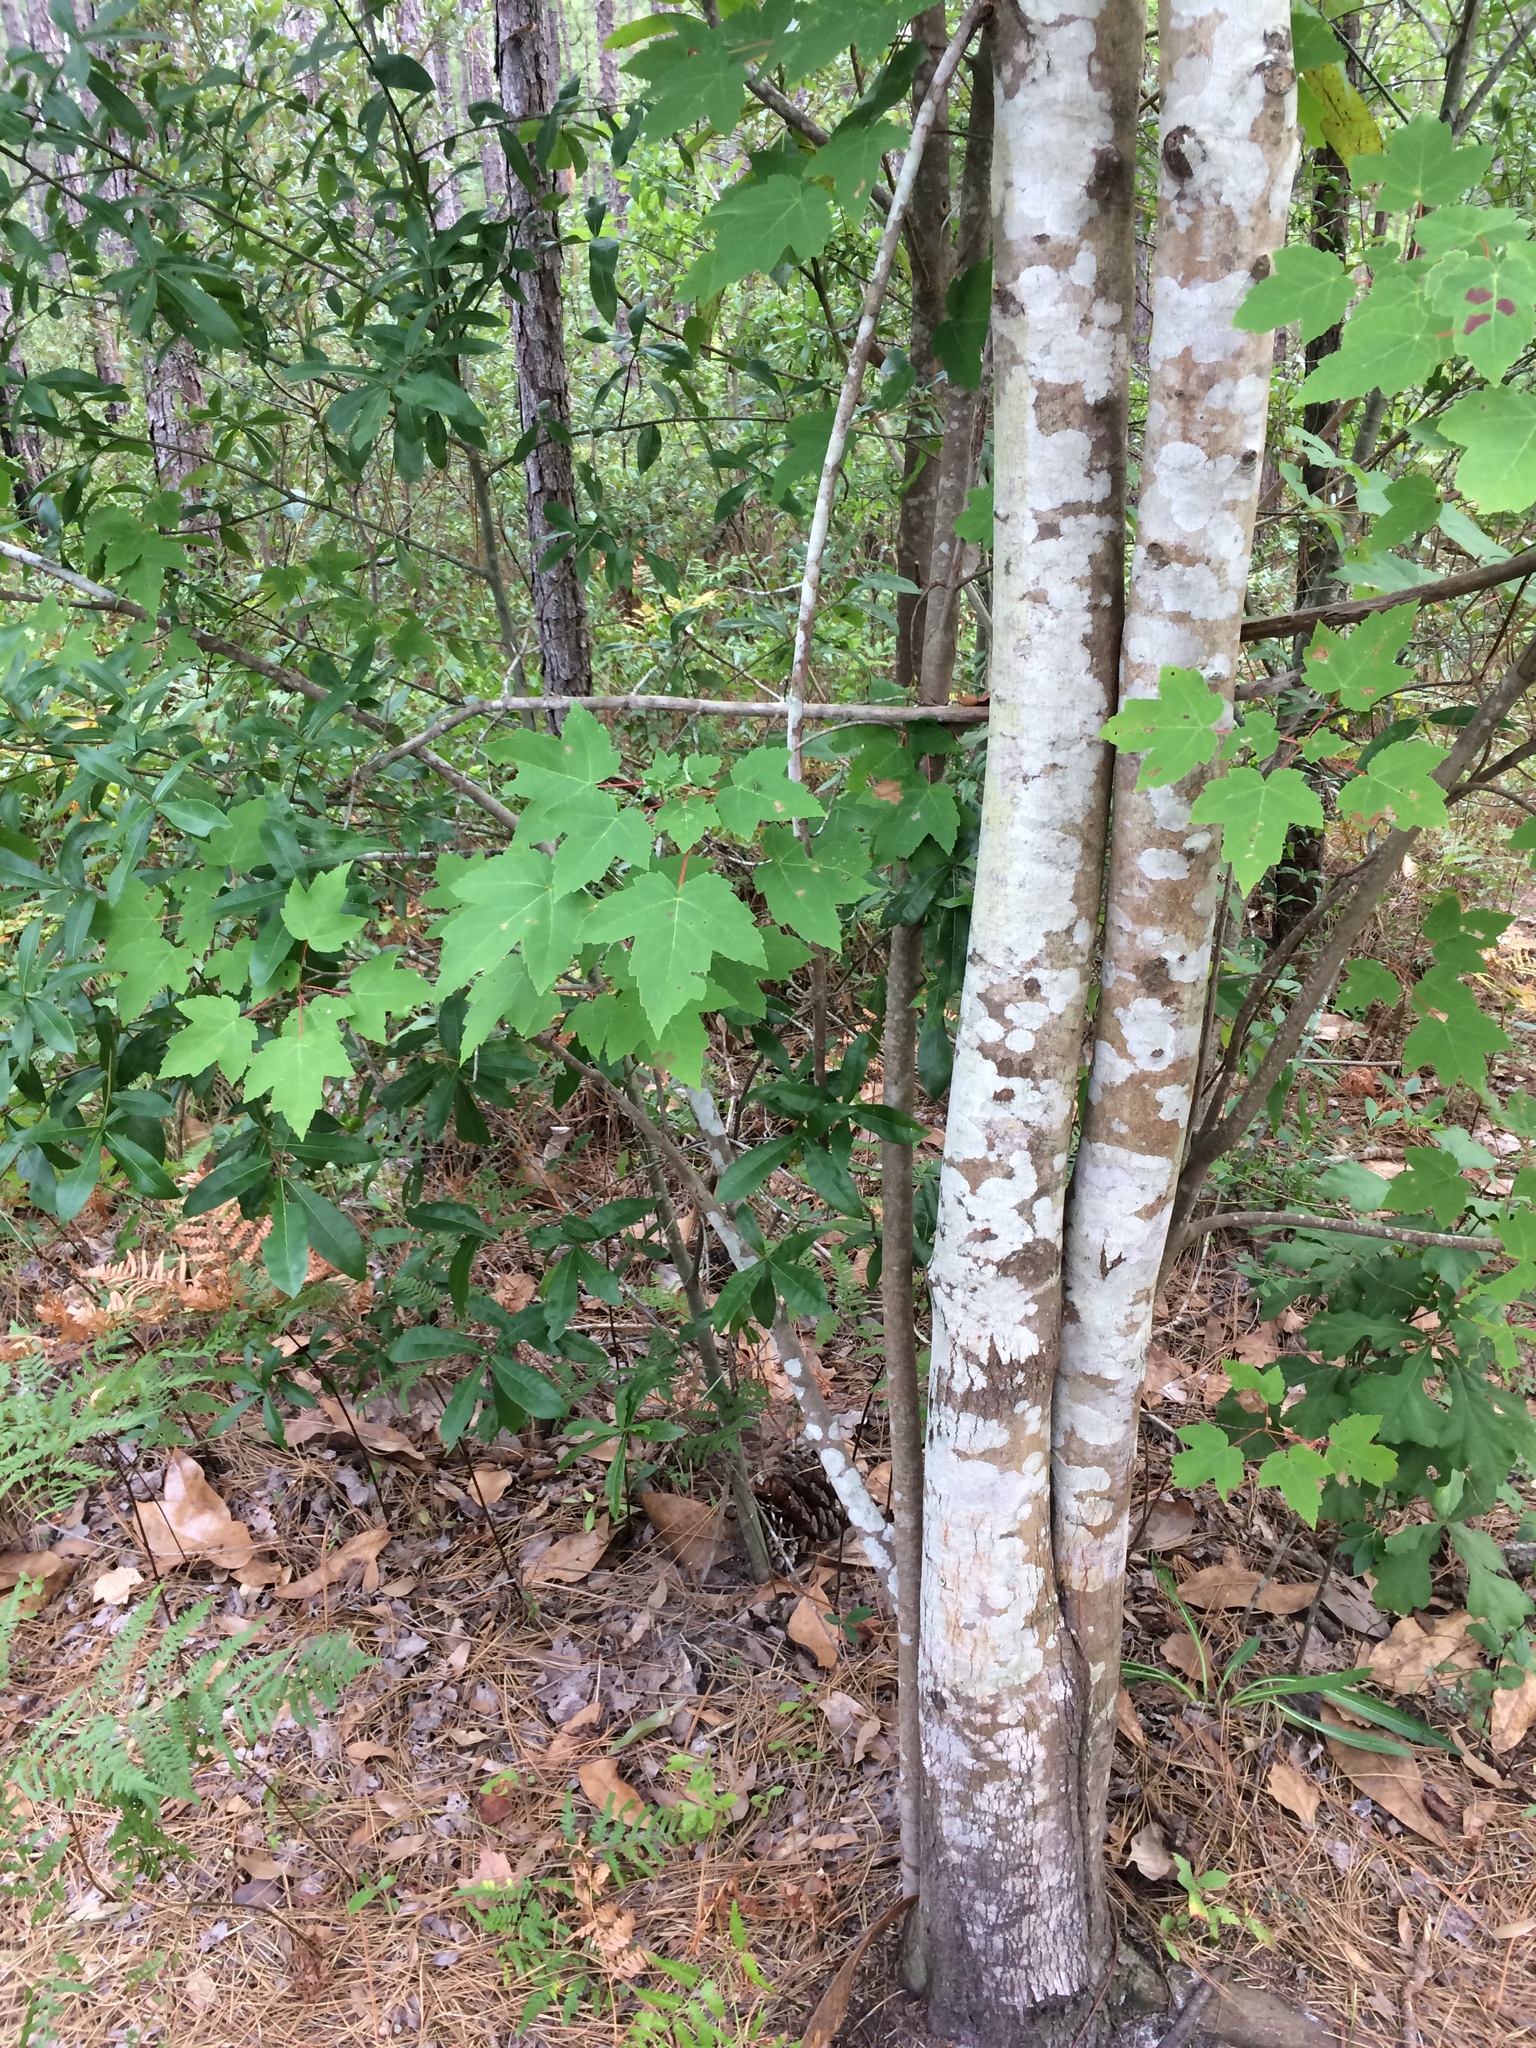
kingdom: Plantae
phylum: Tracheophyta
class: Magnoliopsida
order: Sapindales
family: Sapindaceae
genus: Acer
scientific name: Acer rubrum
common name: Red maple
